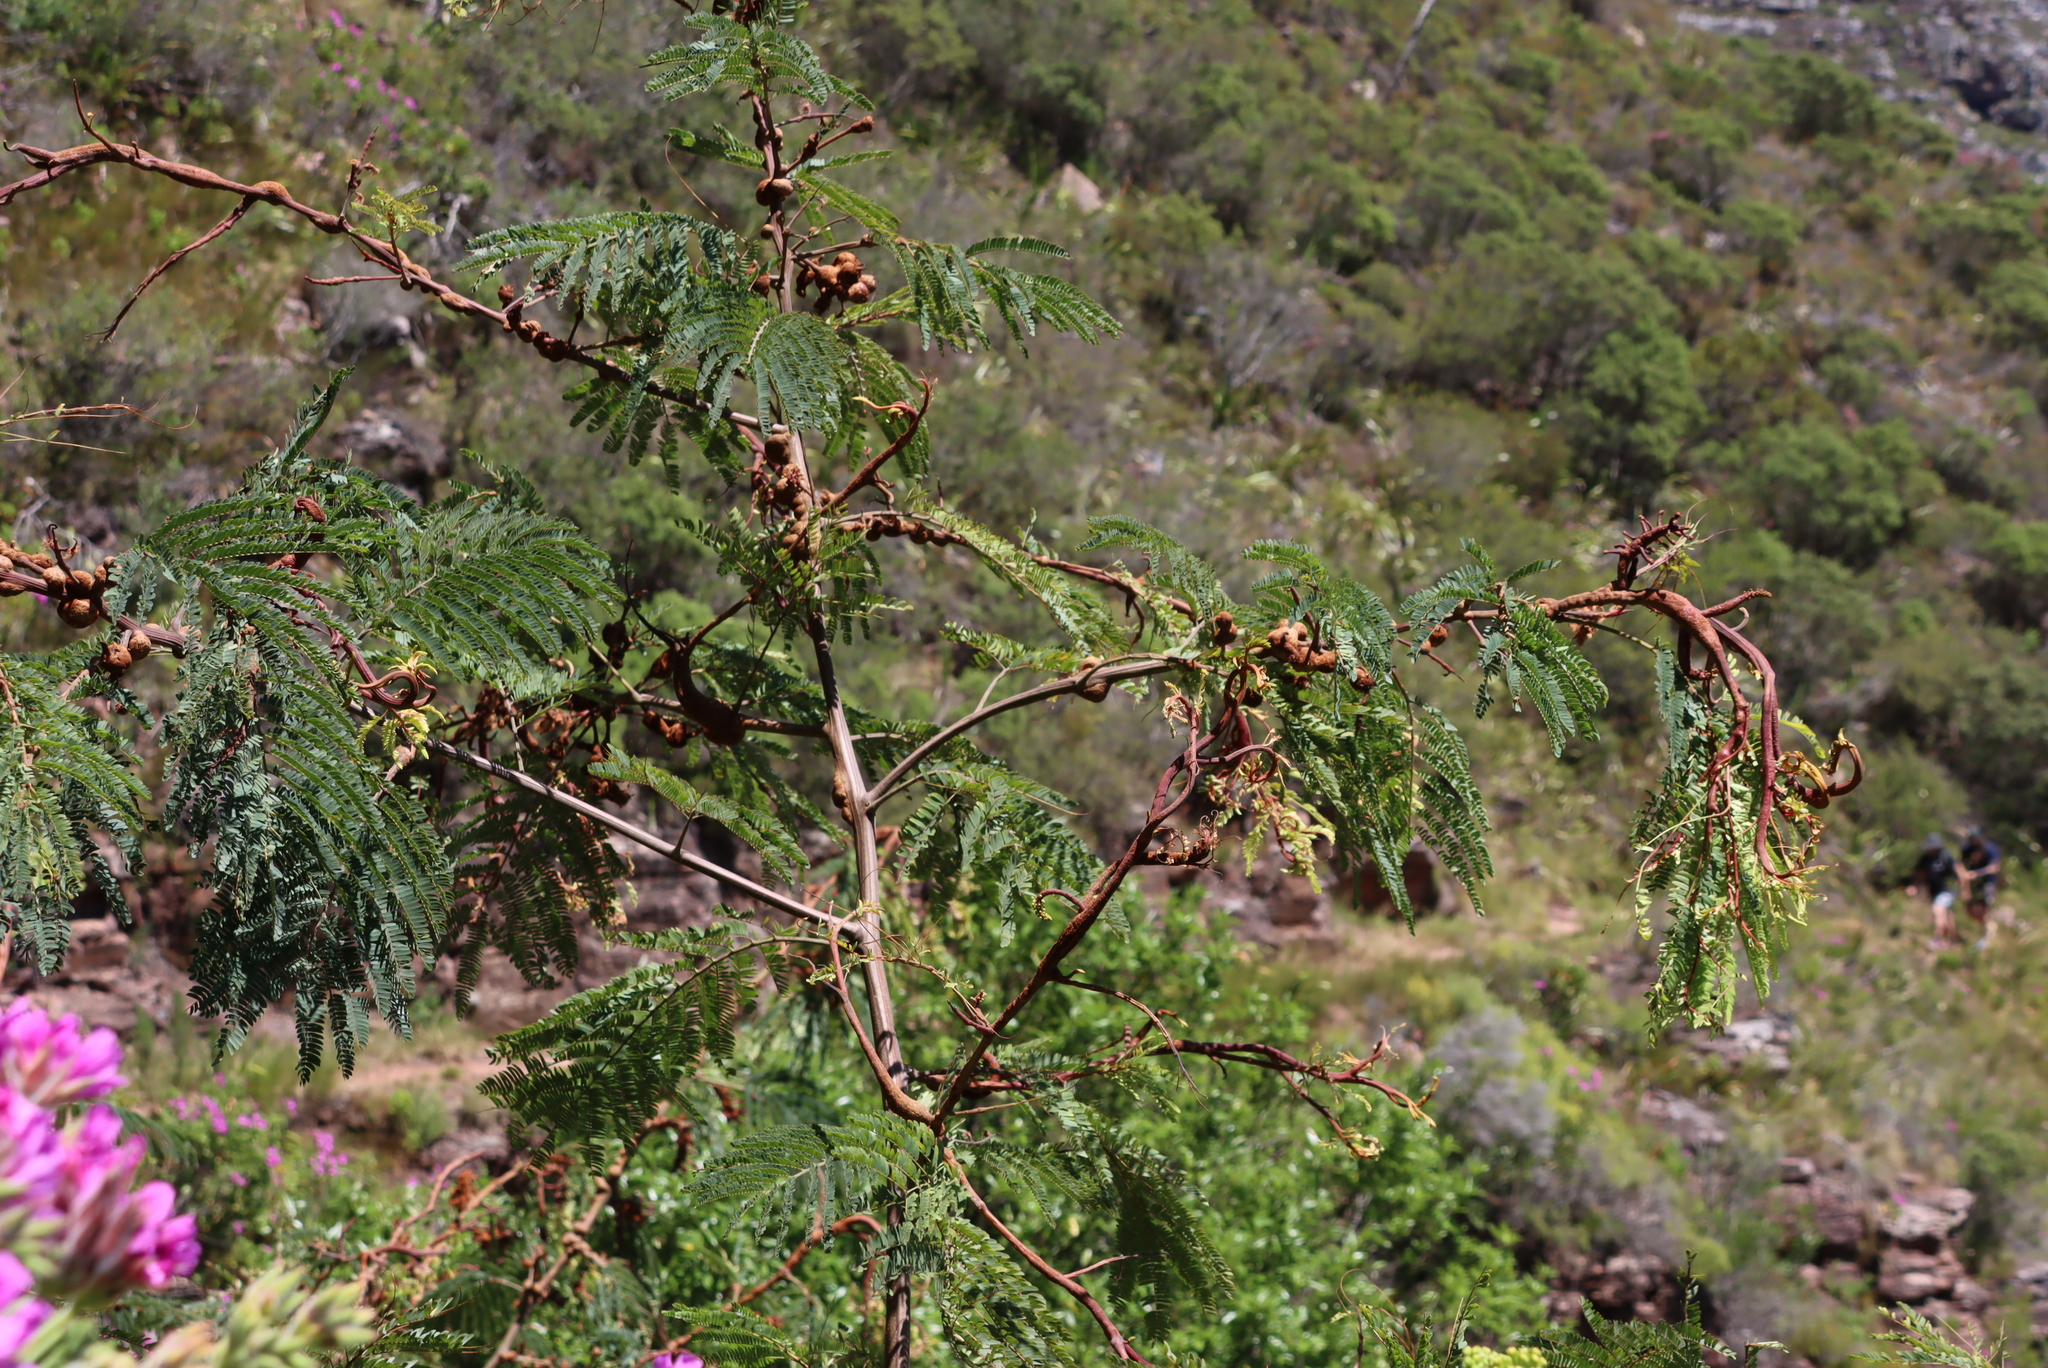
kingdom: Fungi
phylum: Basidiomycota
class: Pucciniomycetes
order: Pucciniales
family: Uromycladiaceae
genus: Uromycladium
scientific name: Uromycladium woodii
